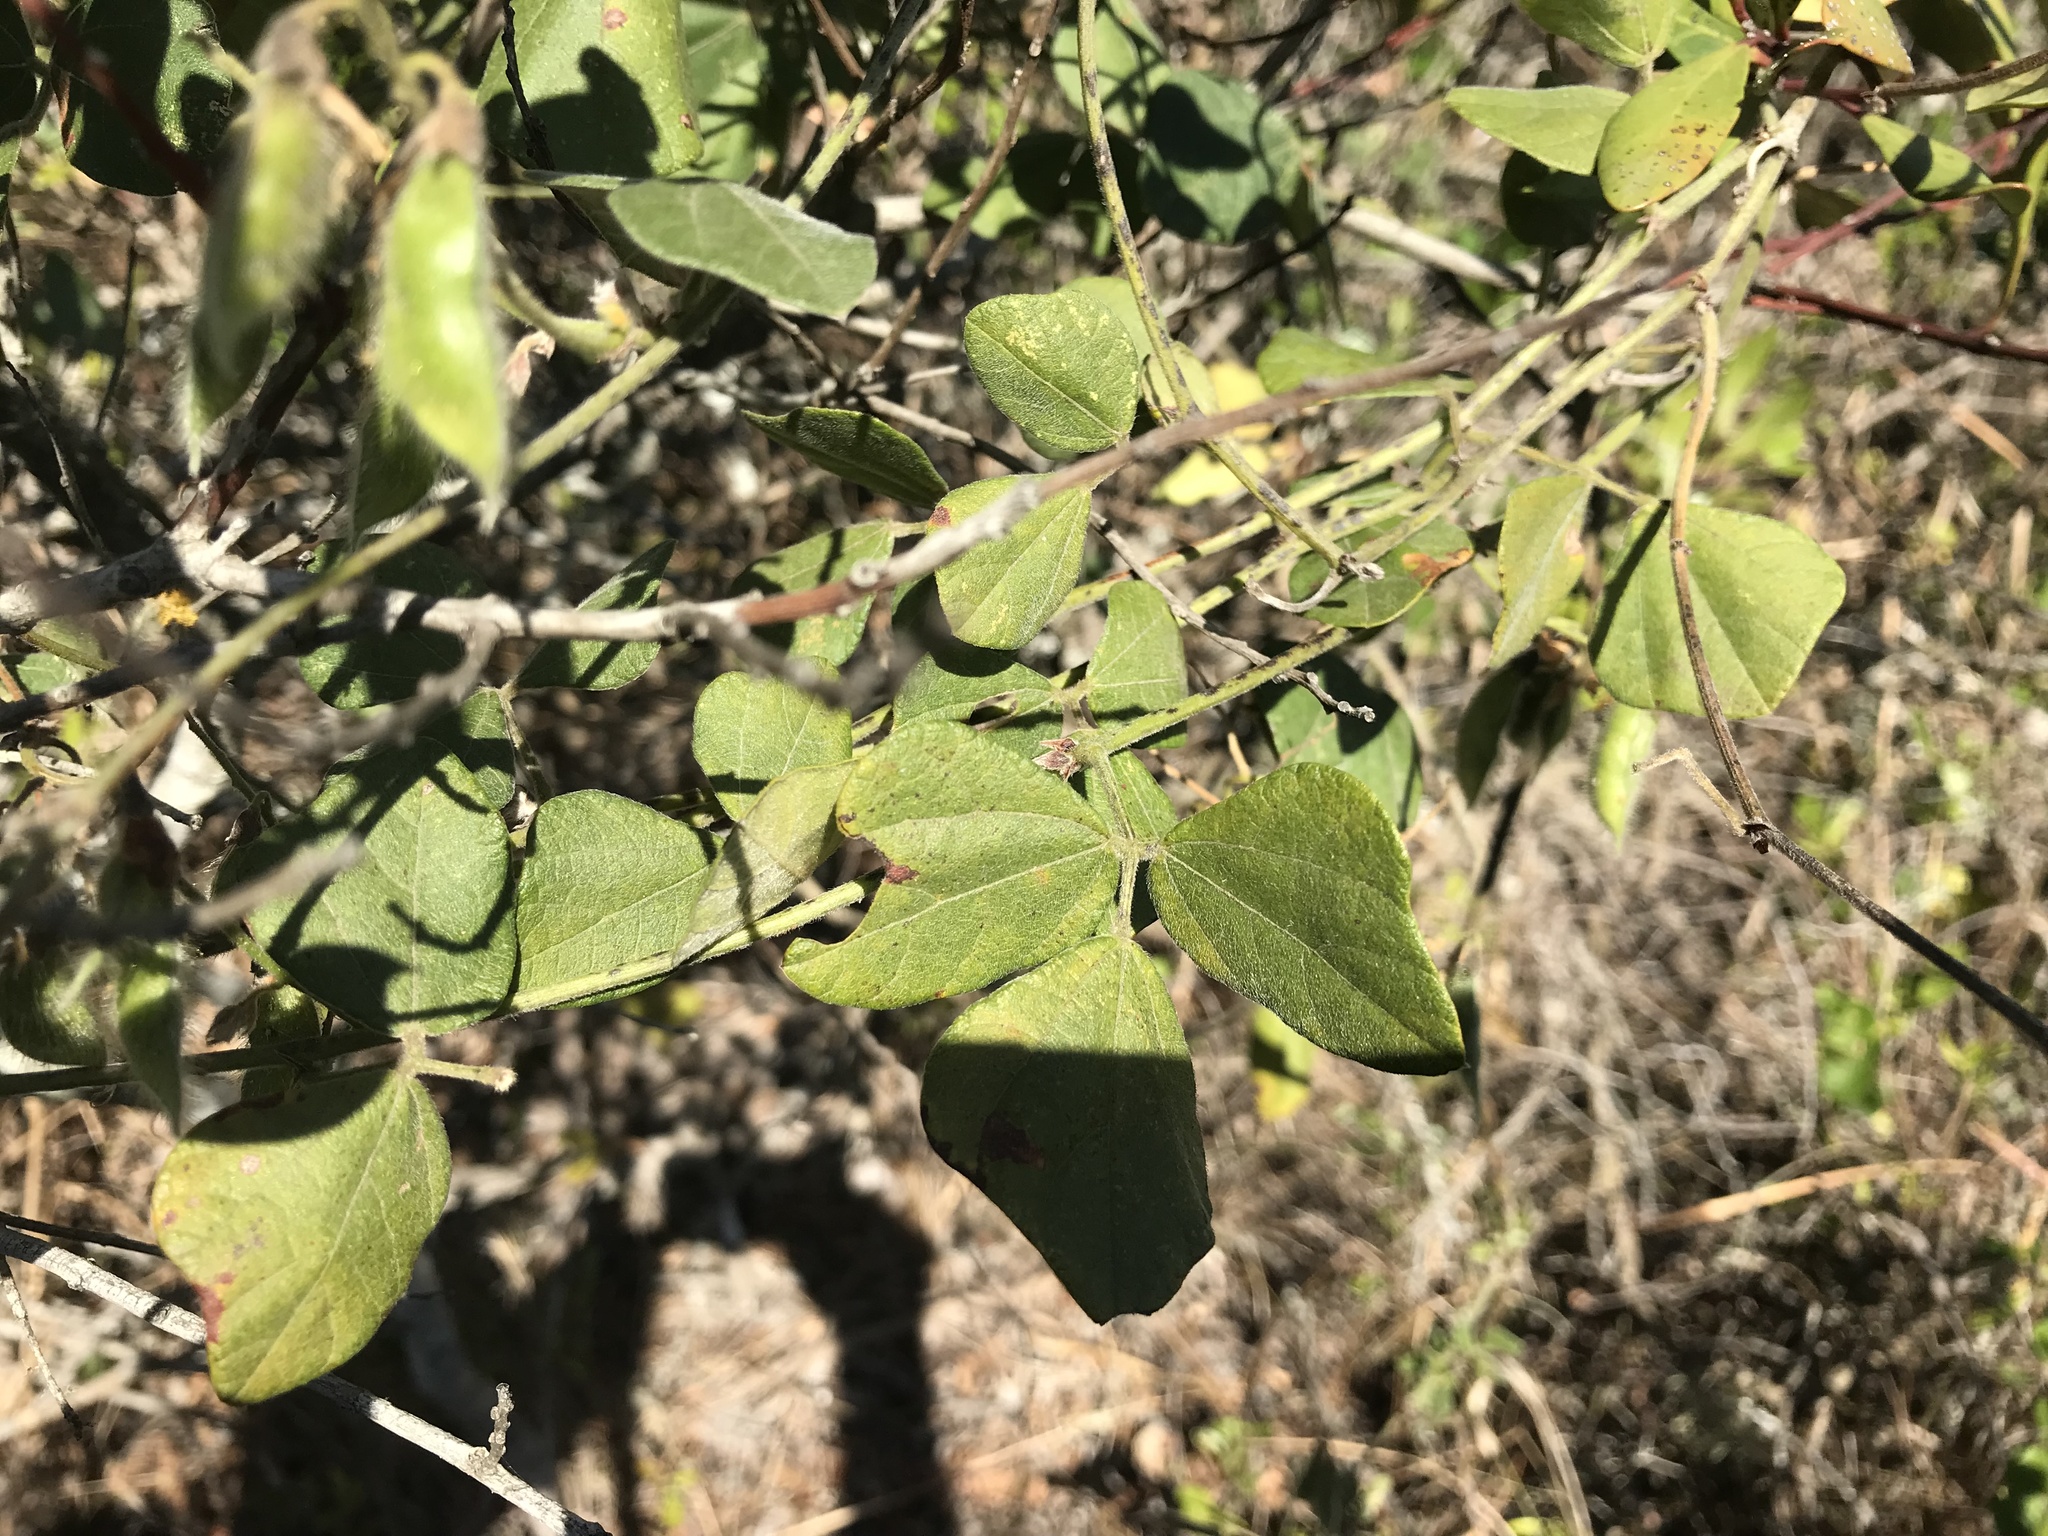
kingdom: Plantae
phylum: Tracheophyta
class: Magnoliopsida
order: Fabales
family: Fabaceae
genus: Rhynchosia
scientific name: Rhynchosia caribaea
